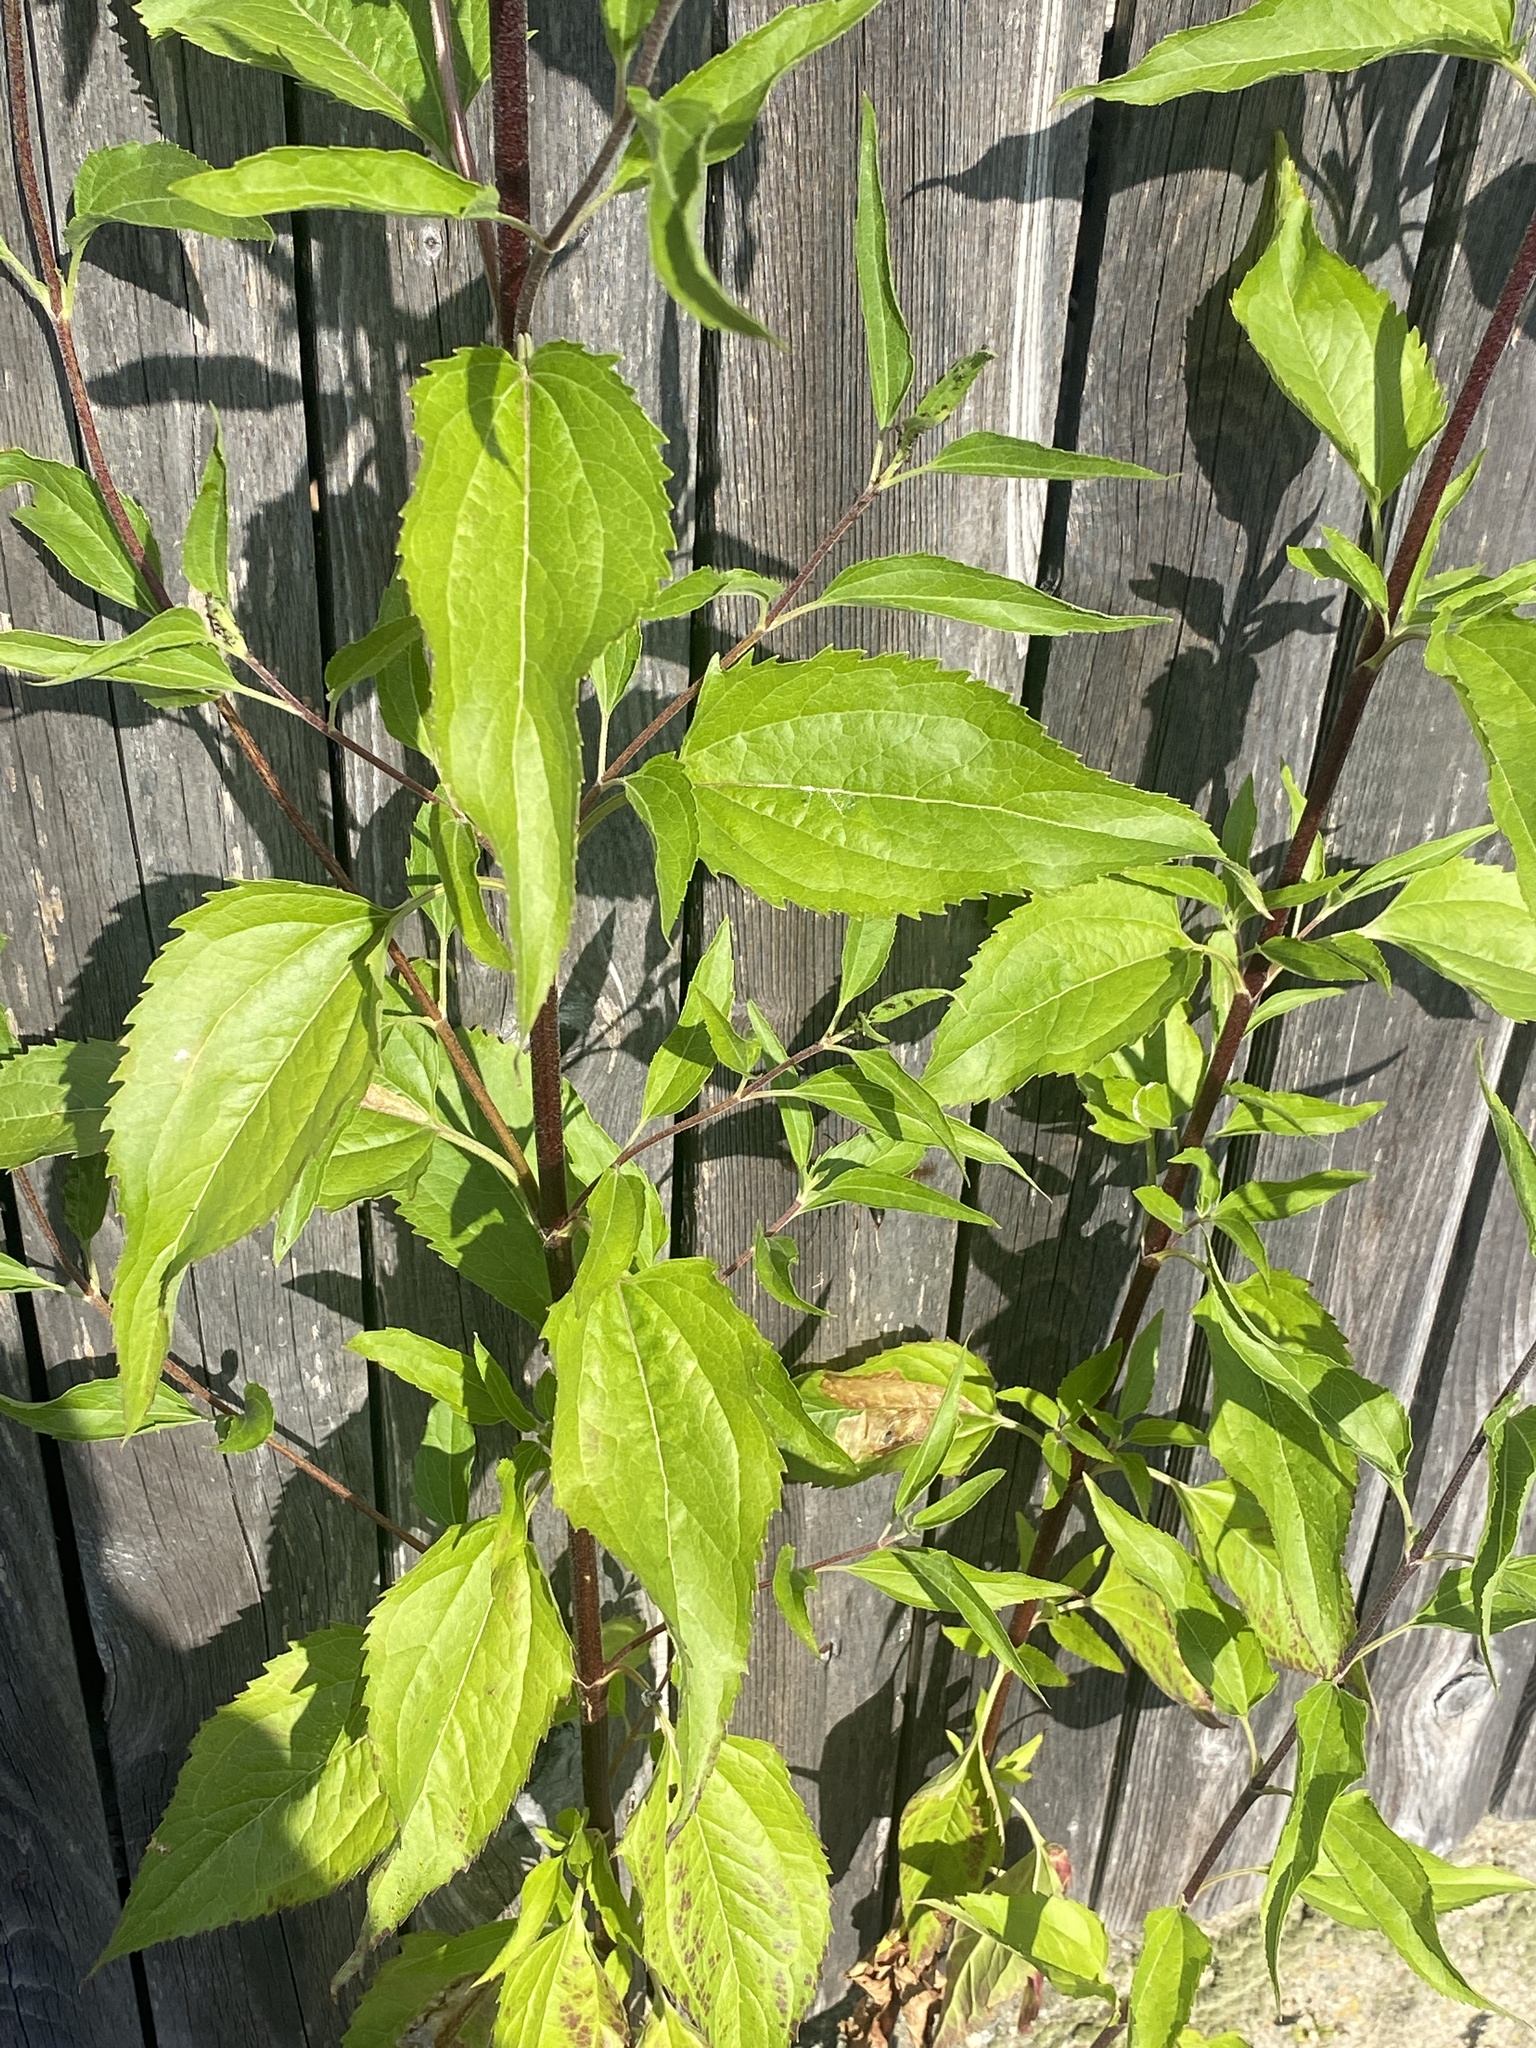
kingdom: Plantae
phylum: Tracheophyta
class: Magnoliopsida
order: Asterales
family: Asteraceae
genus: Eupatorium
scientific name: Eupatorium serotinum
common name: Late boneset
